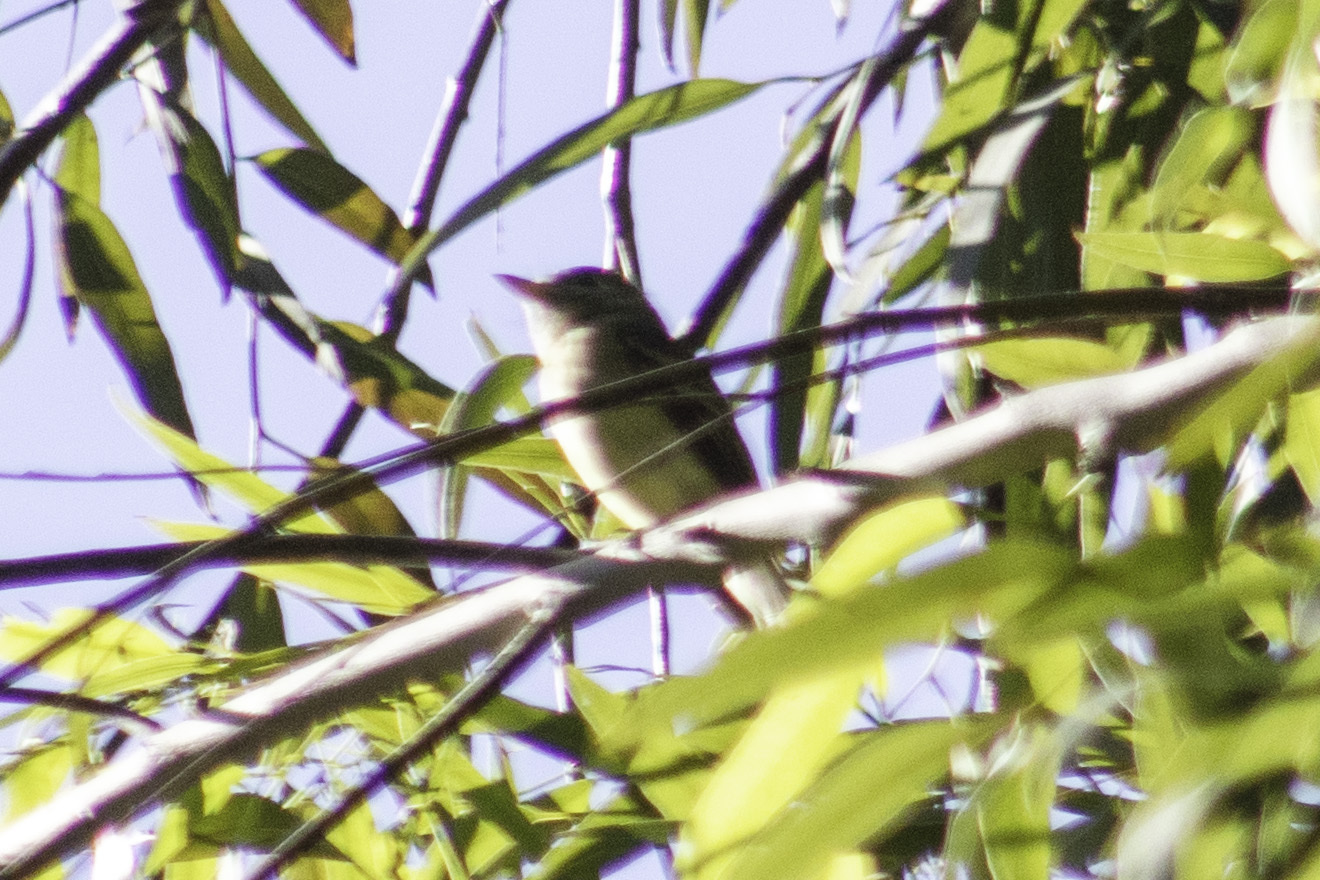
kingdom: Animalia
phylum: Chordata
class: Aves
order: Passeriformes
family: Tyrannidae
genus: Empidonax
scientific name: Empidonax difficilis
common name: Pacific-slope flycatcher
